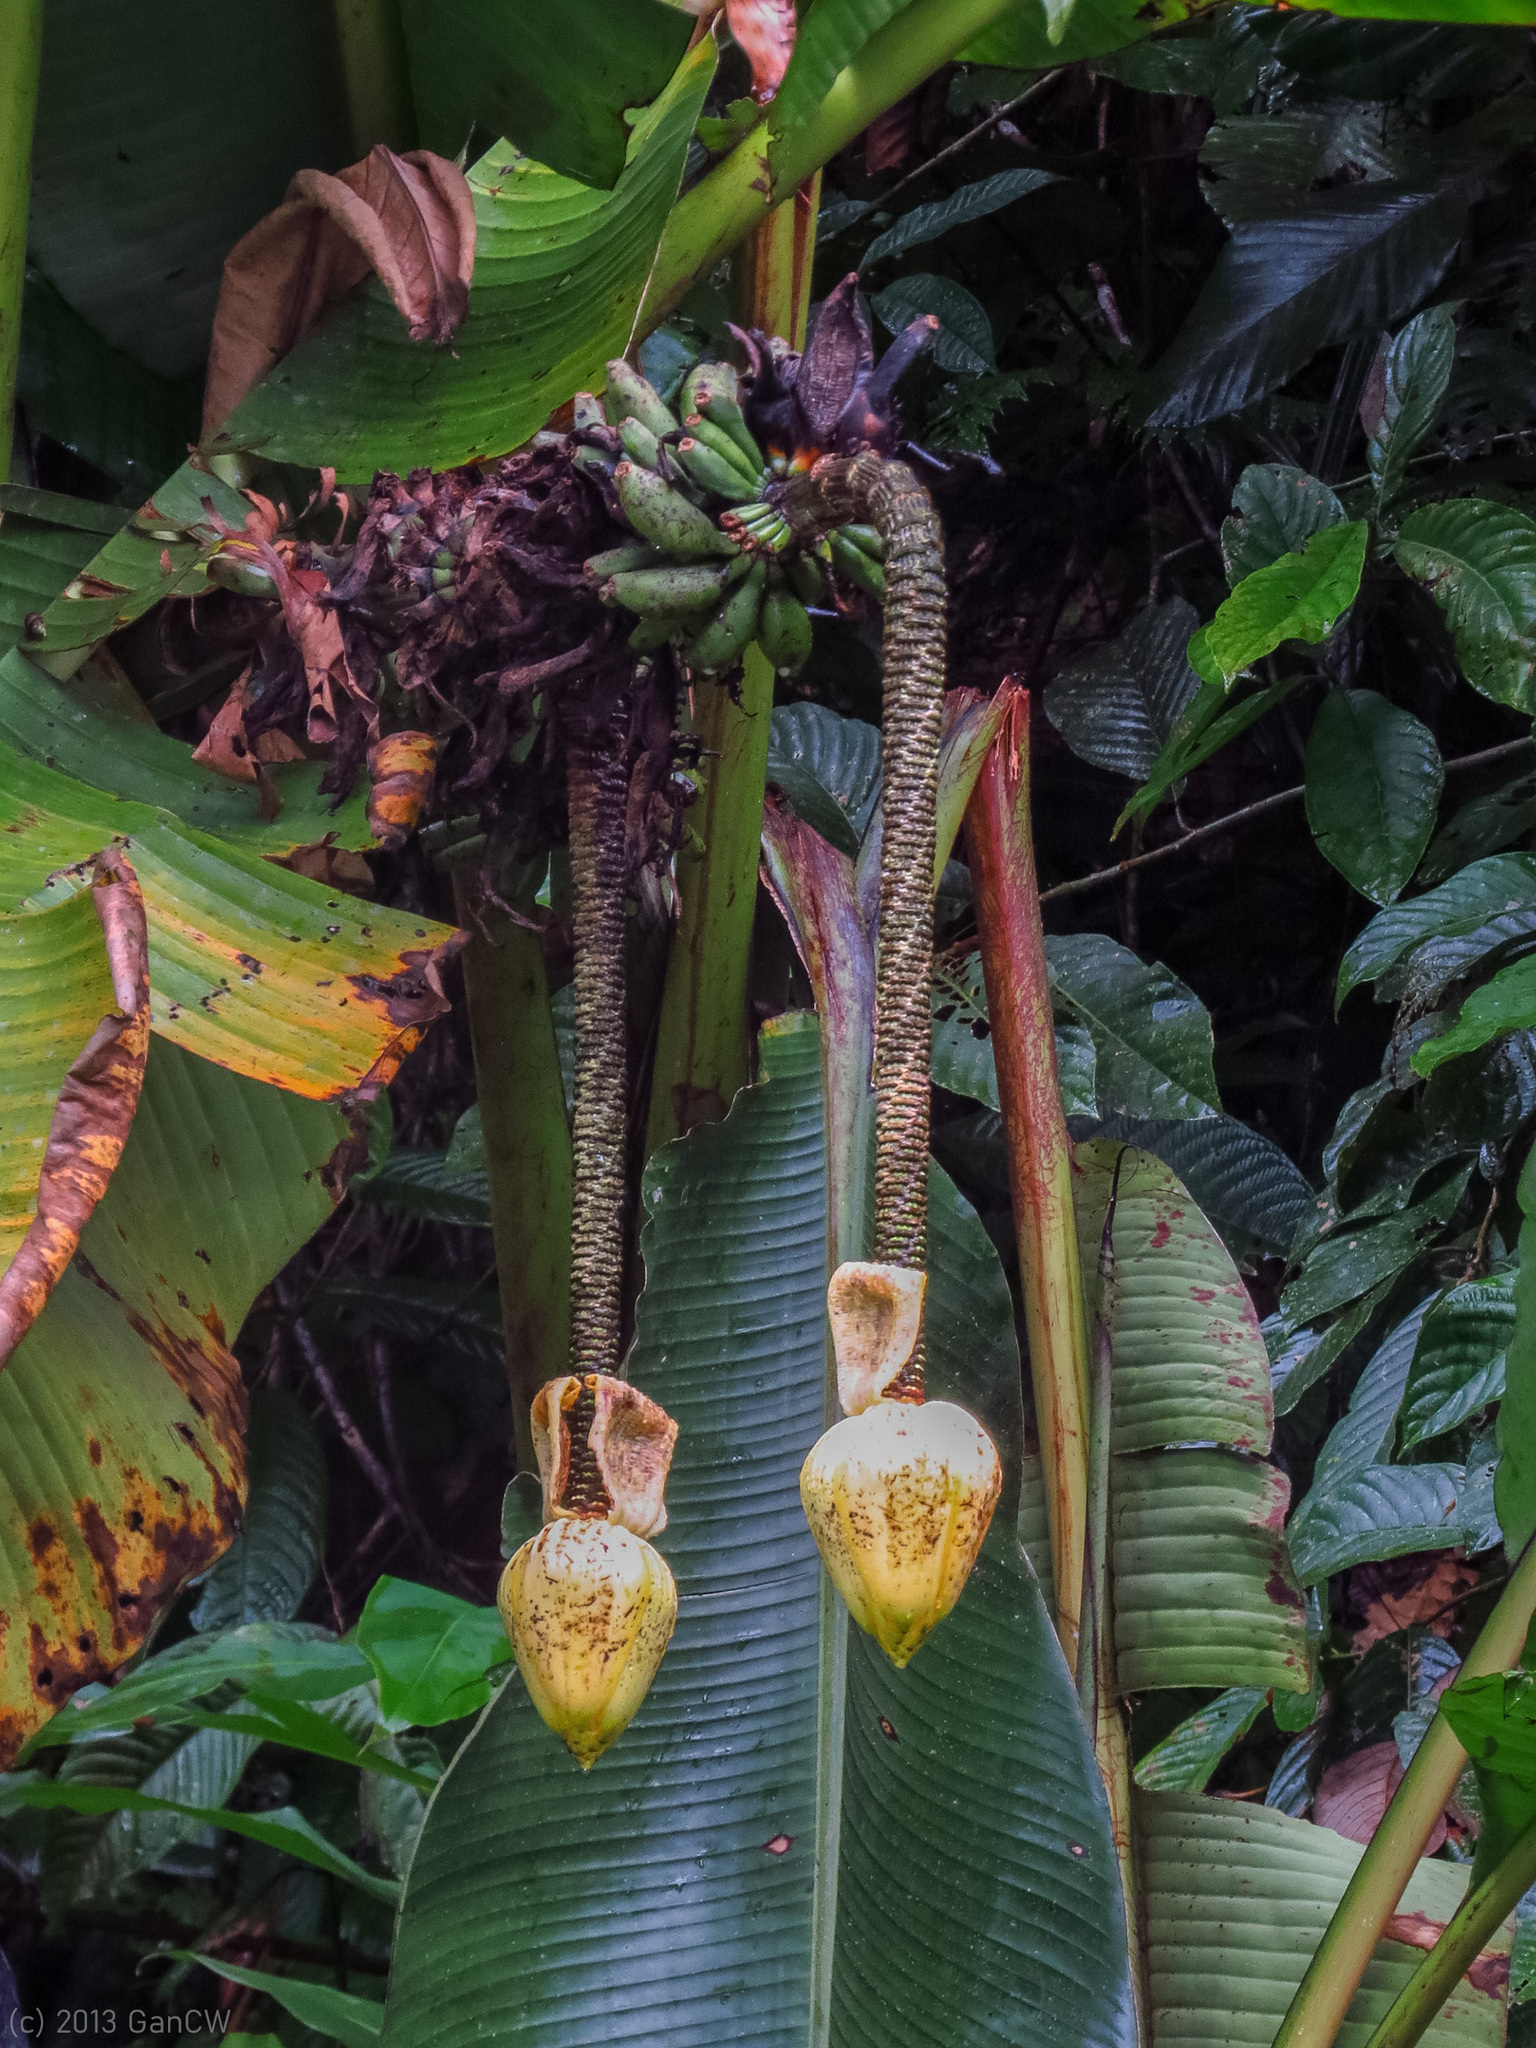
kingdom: Plantae
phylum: Tracheophyta
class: Liliopsida
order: Zingiberales
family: Musaceae
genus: Musa
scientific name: Musa borneensis
